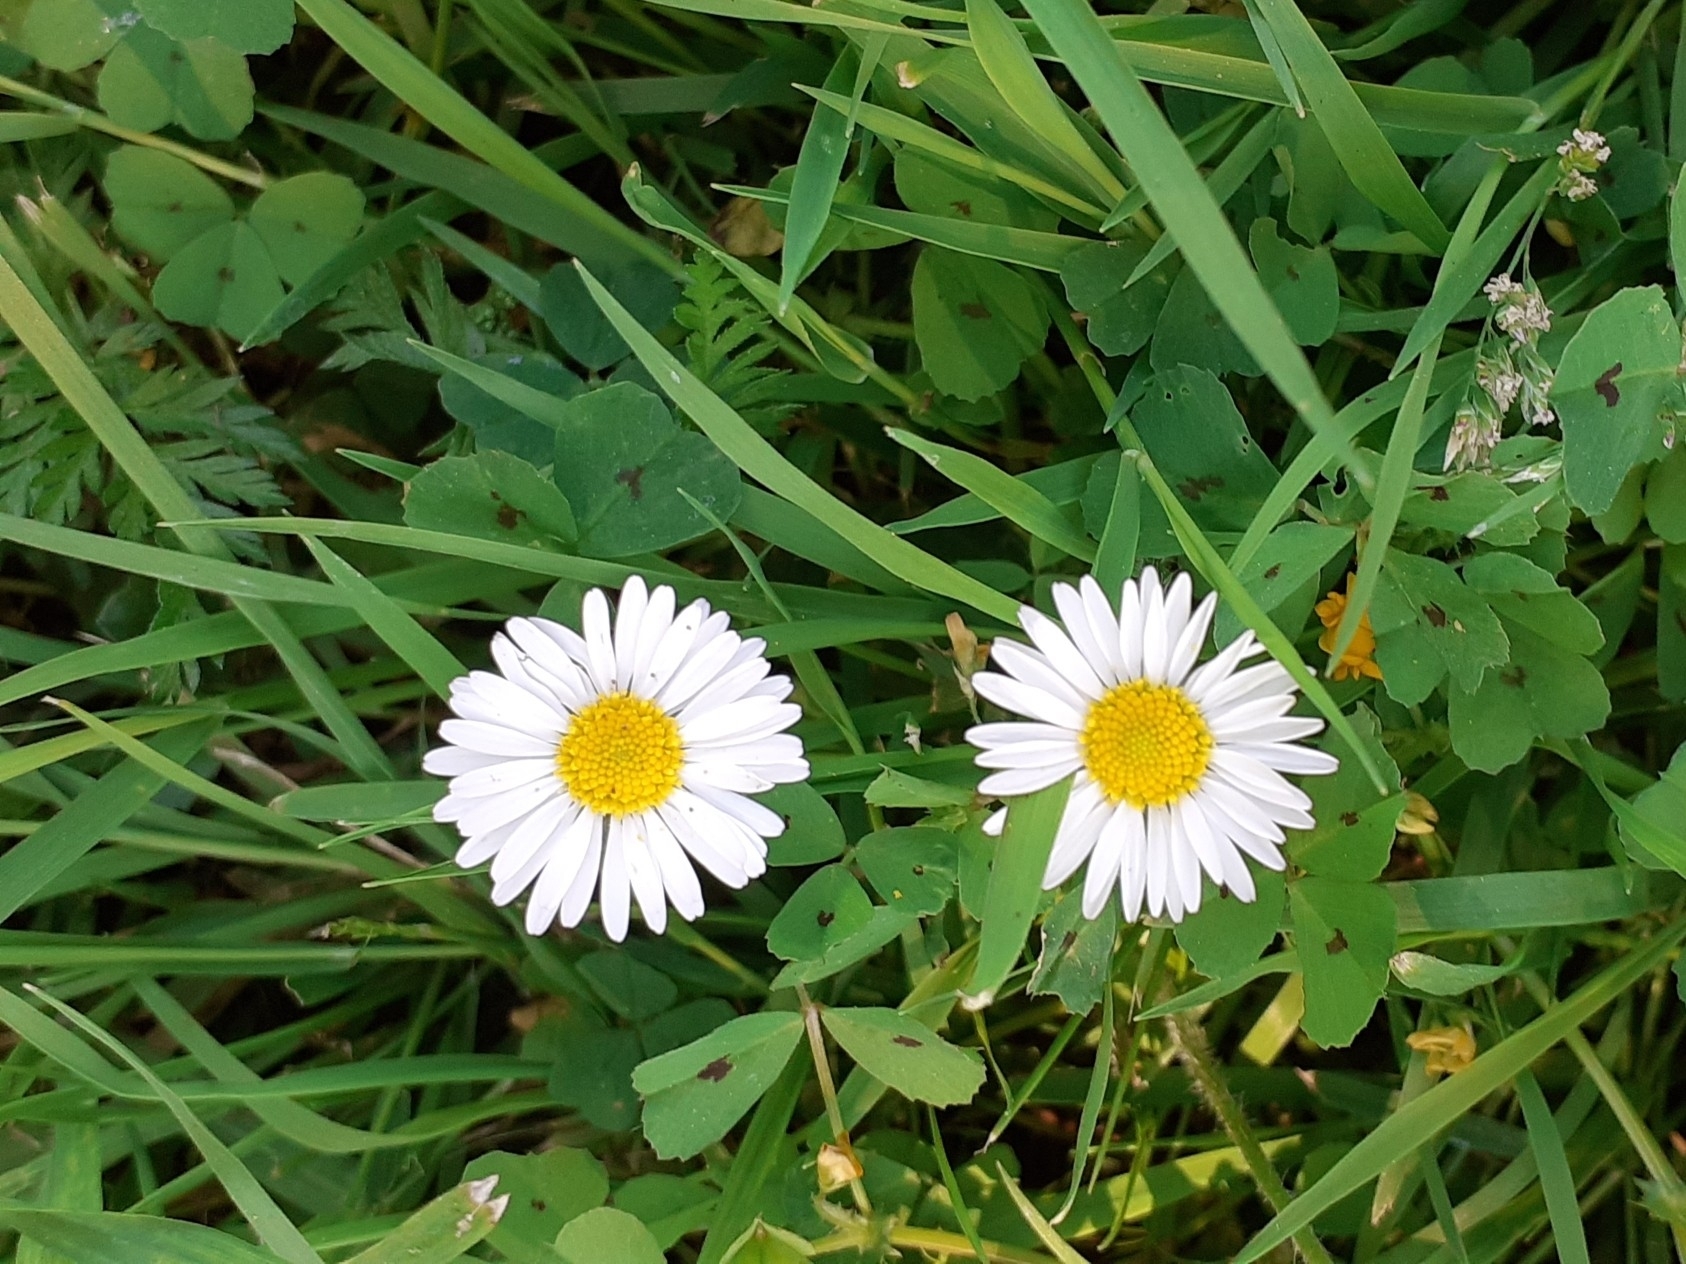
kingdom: Plantae
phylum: Tracheophyta
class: Magnoliopsida
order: Asterales
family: Asteraceae
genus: Bellis
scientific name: Bellis perennis
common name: Lawndaisy
